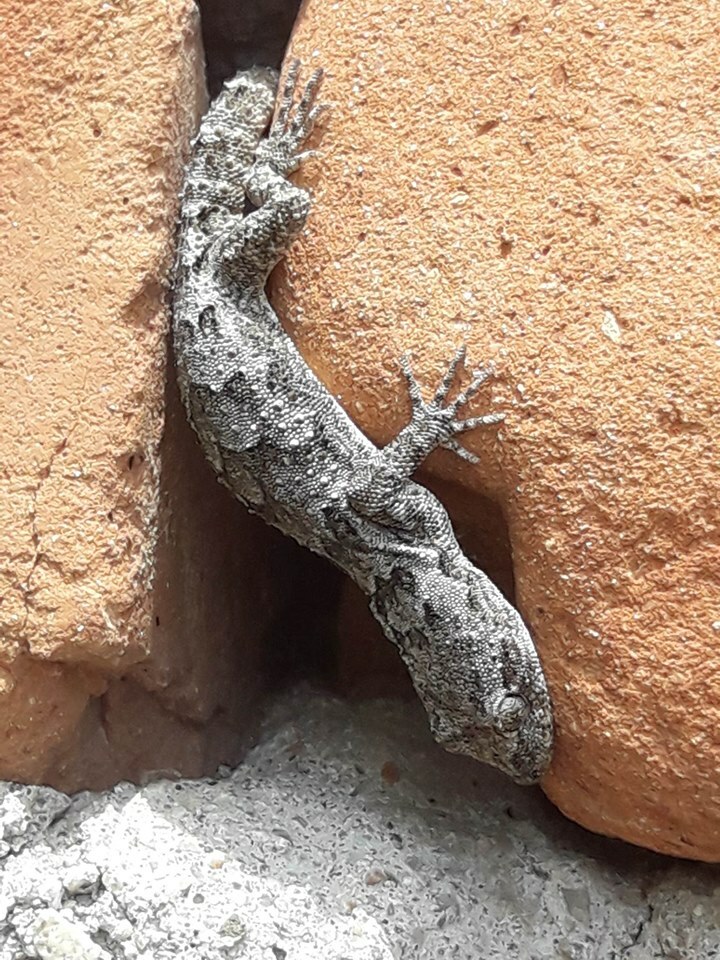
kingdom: Animalia
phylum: Chordata
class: Squamata
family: Gekkonidae
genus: Mediodactylus
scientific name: Mediodactylus kotschyi
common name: Kotschy's gecko
